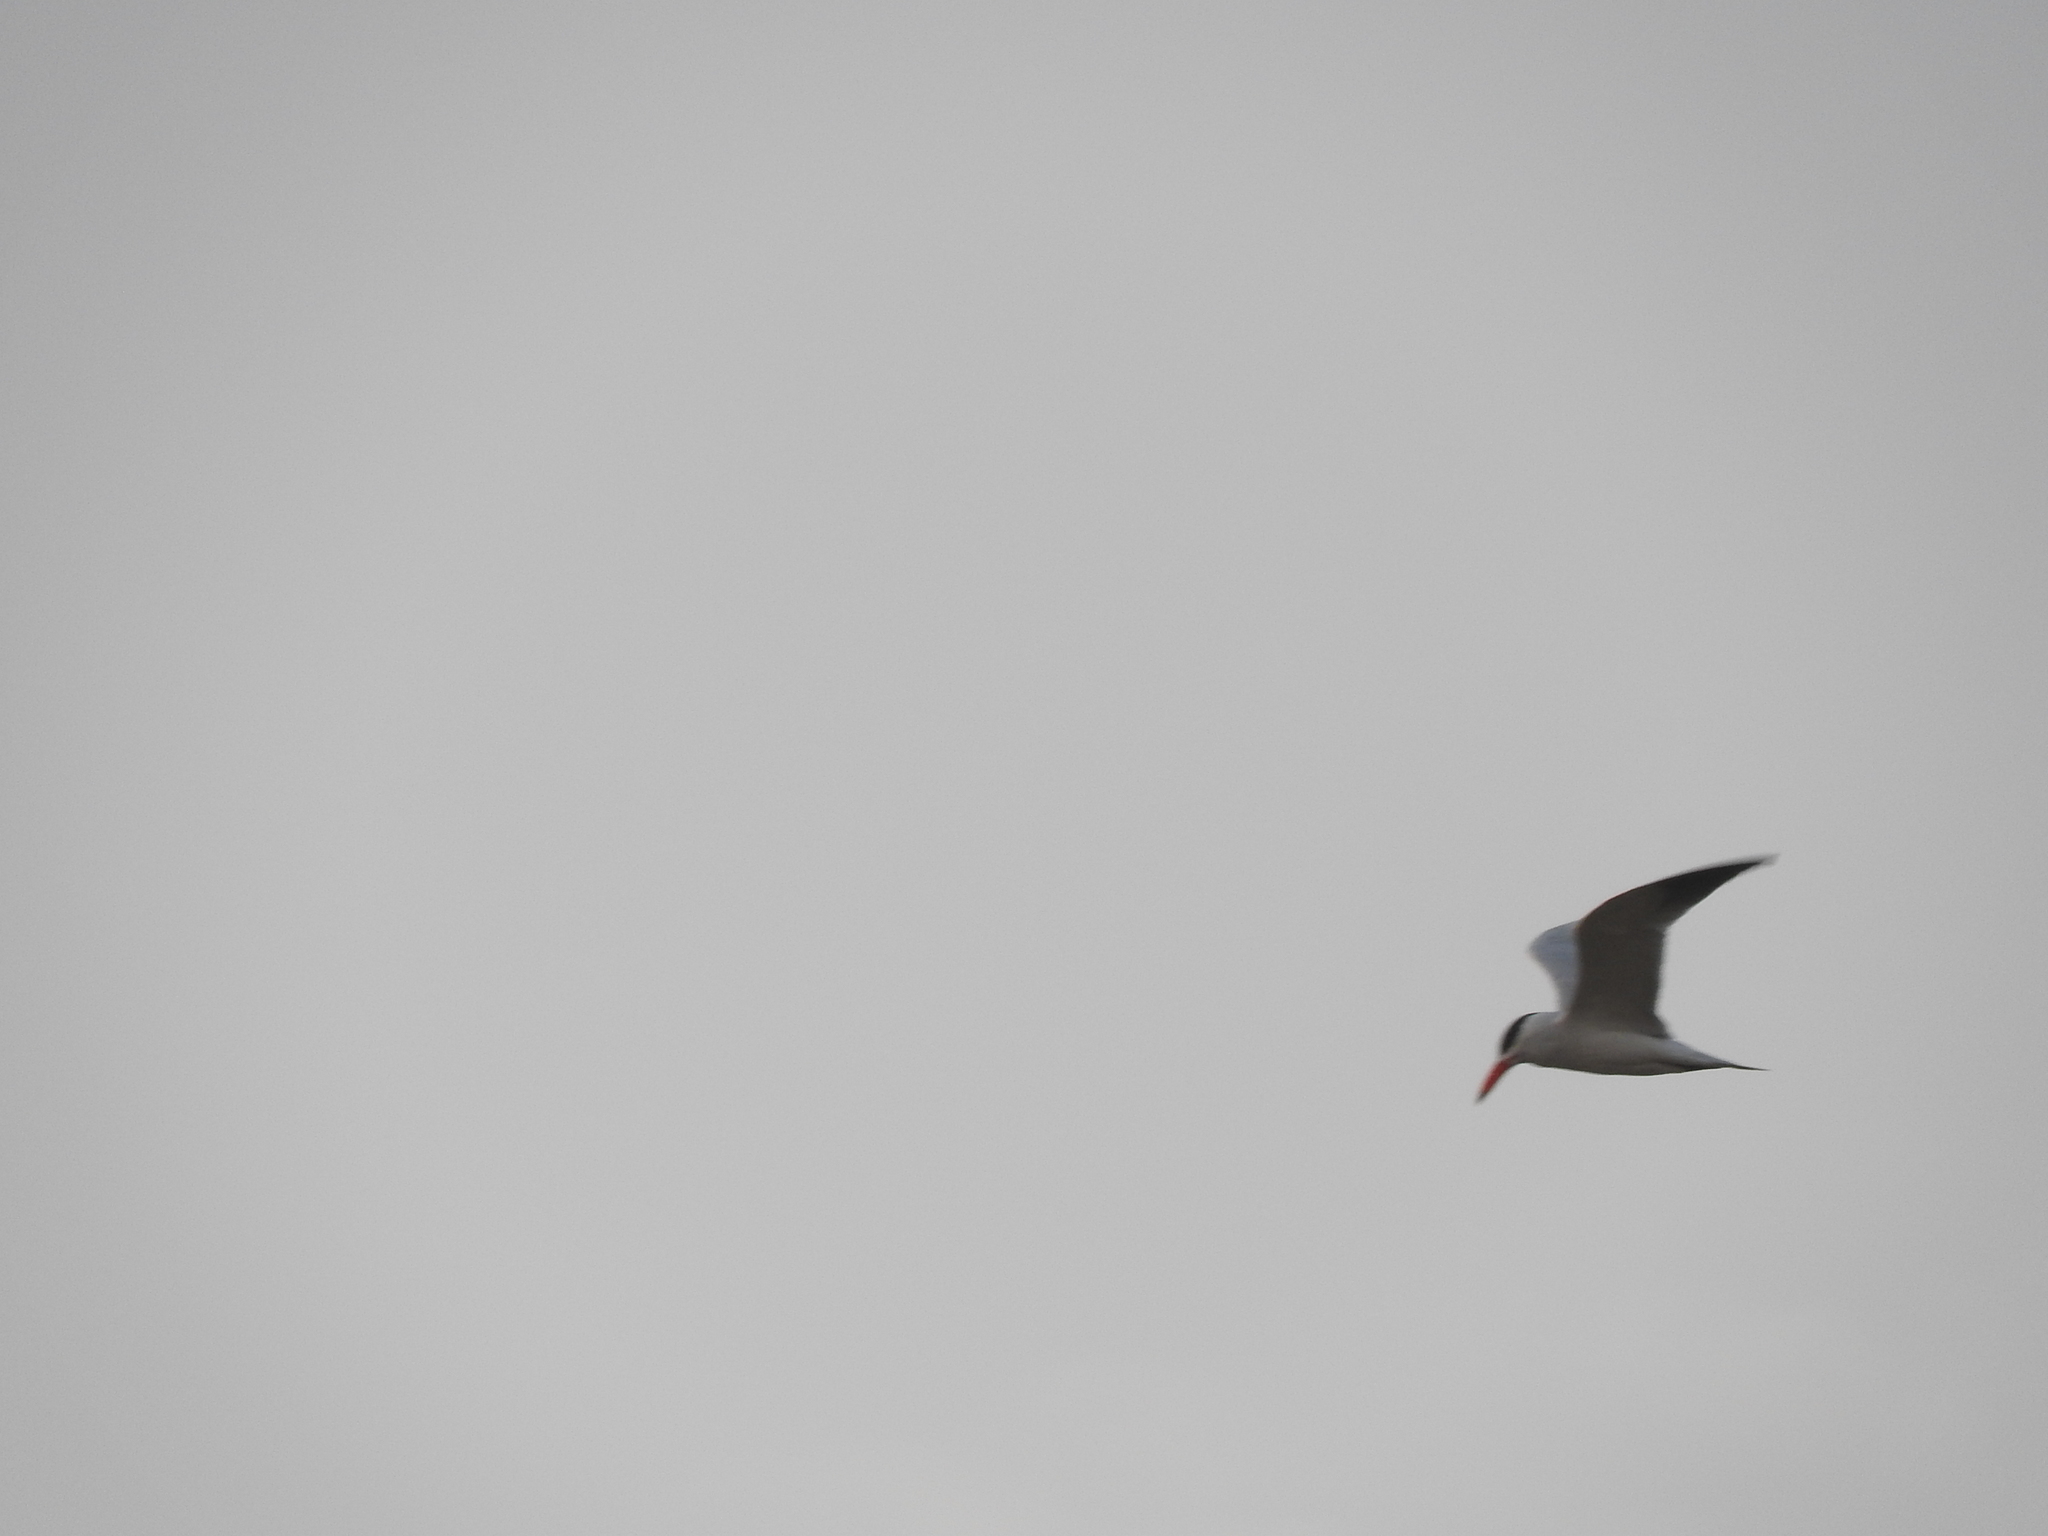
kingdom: Animalia
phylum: Chordata
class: Aves
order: Charadriiformes
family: Laridae
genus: Hydroprogne
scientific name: Hydroprogne caspia
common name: Caspian tern
